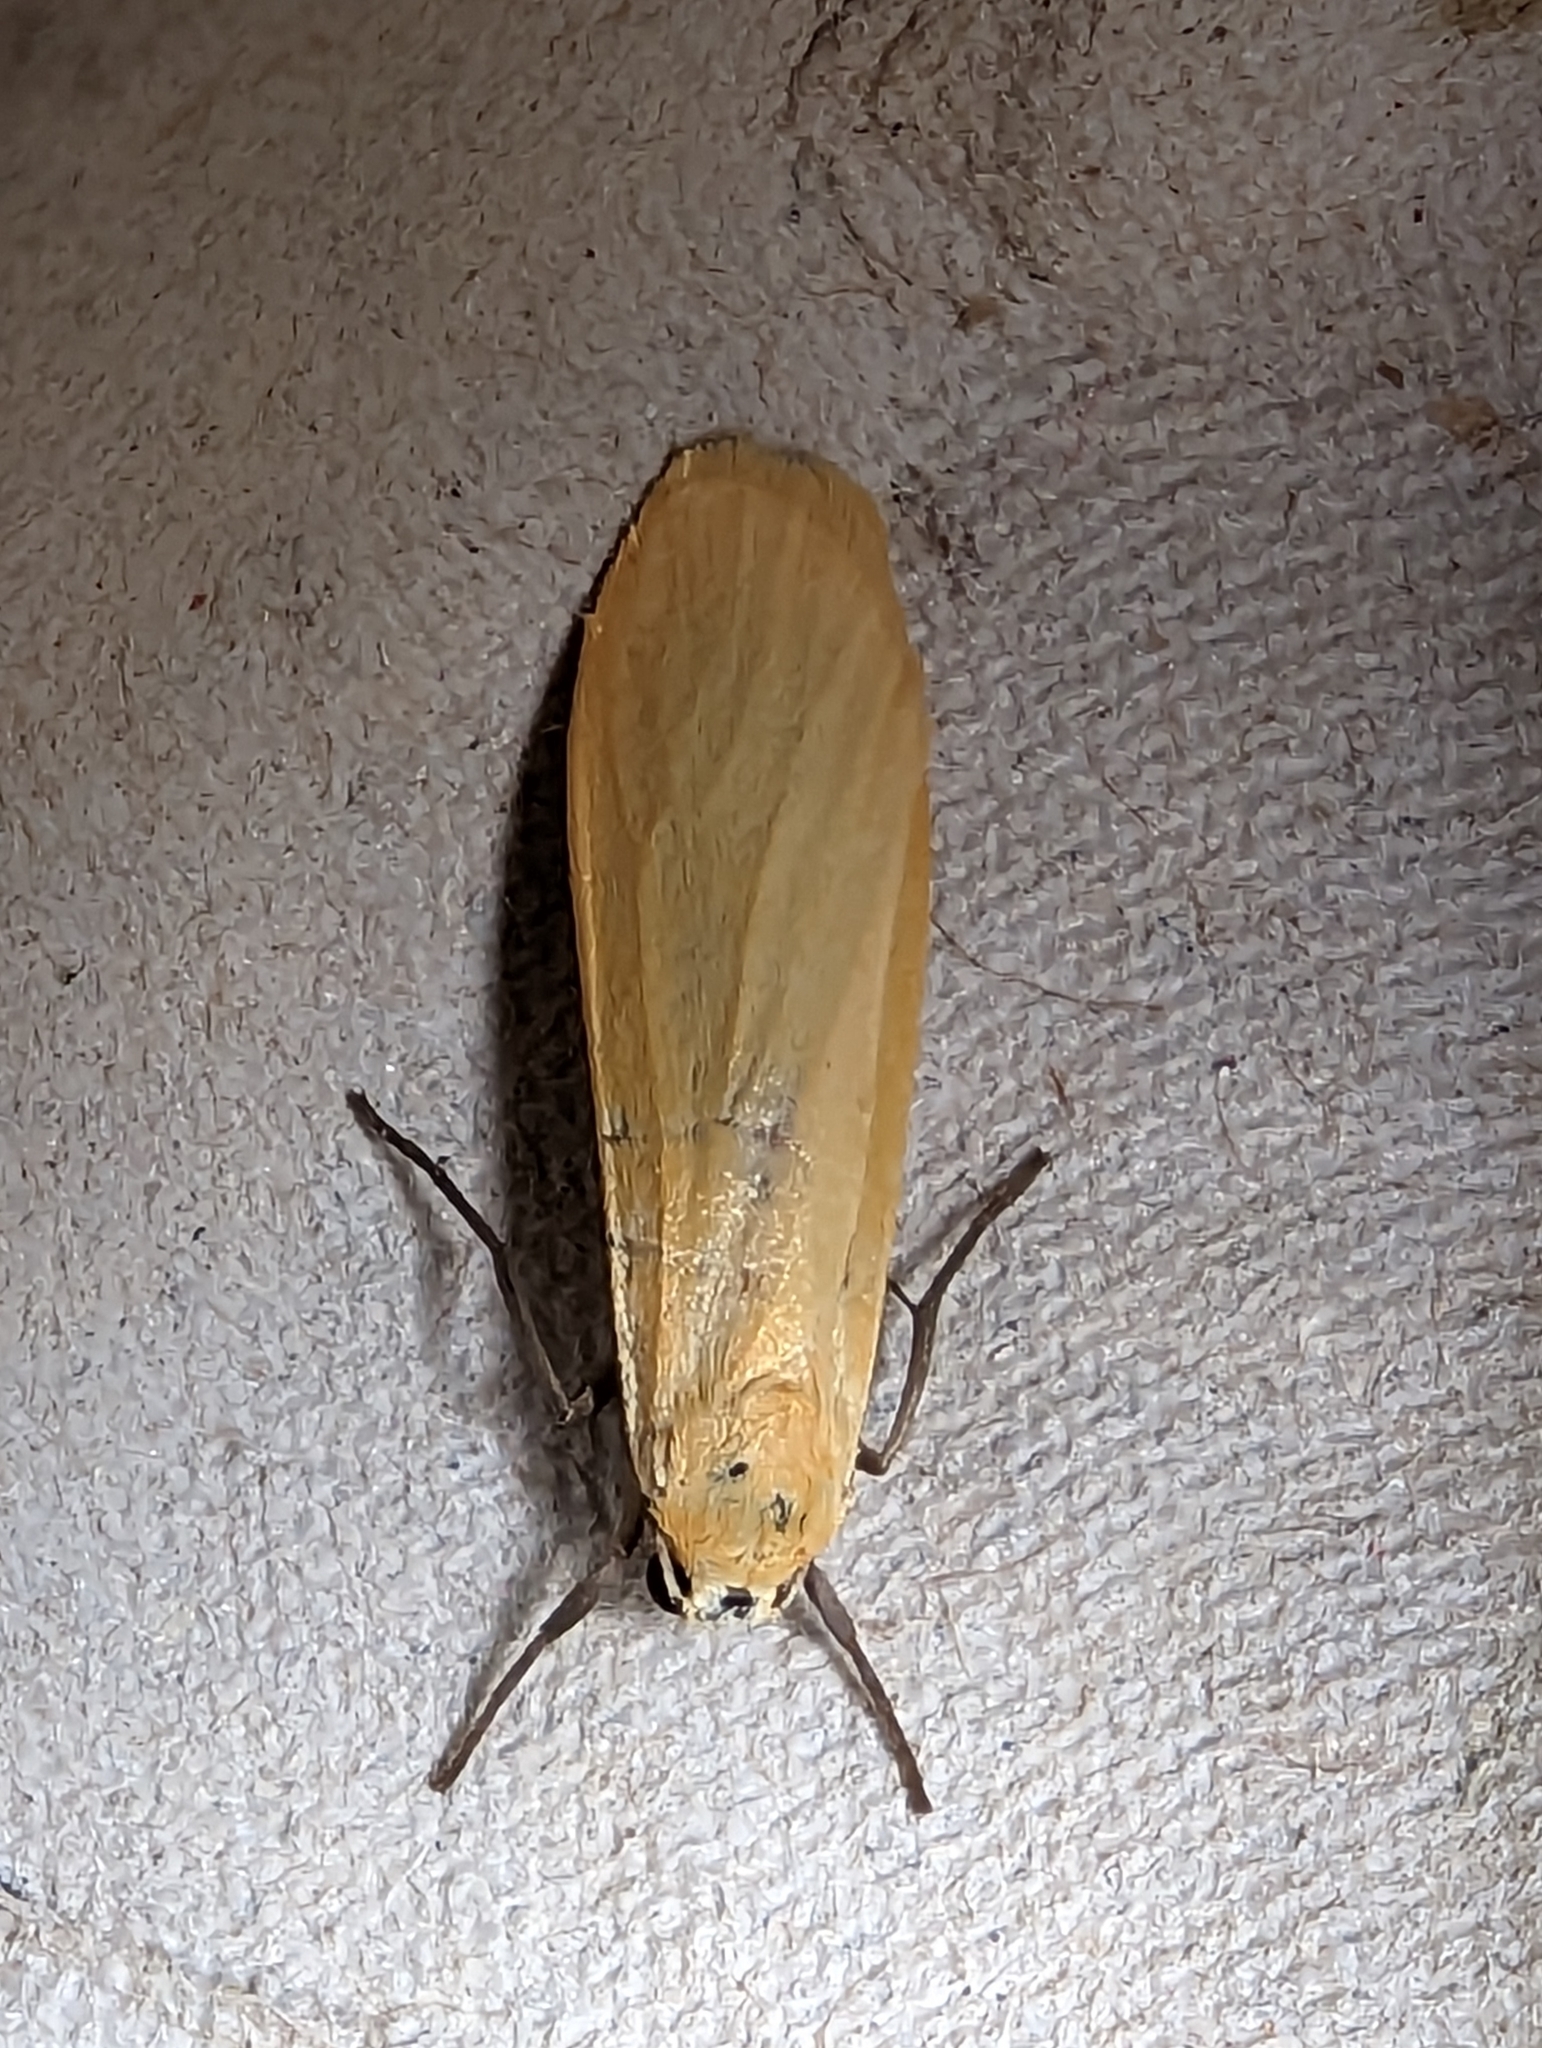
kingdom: Animalia
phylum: Arthropoda
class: Insecta
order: Lepidoptera
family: Erebidae
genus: Wittia
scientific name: Wittia sororcula
